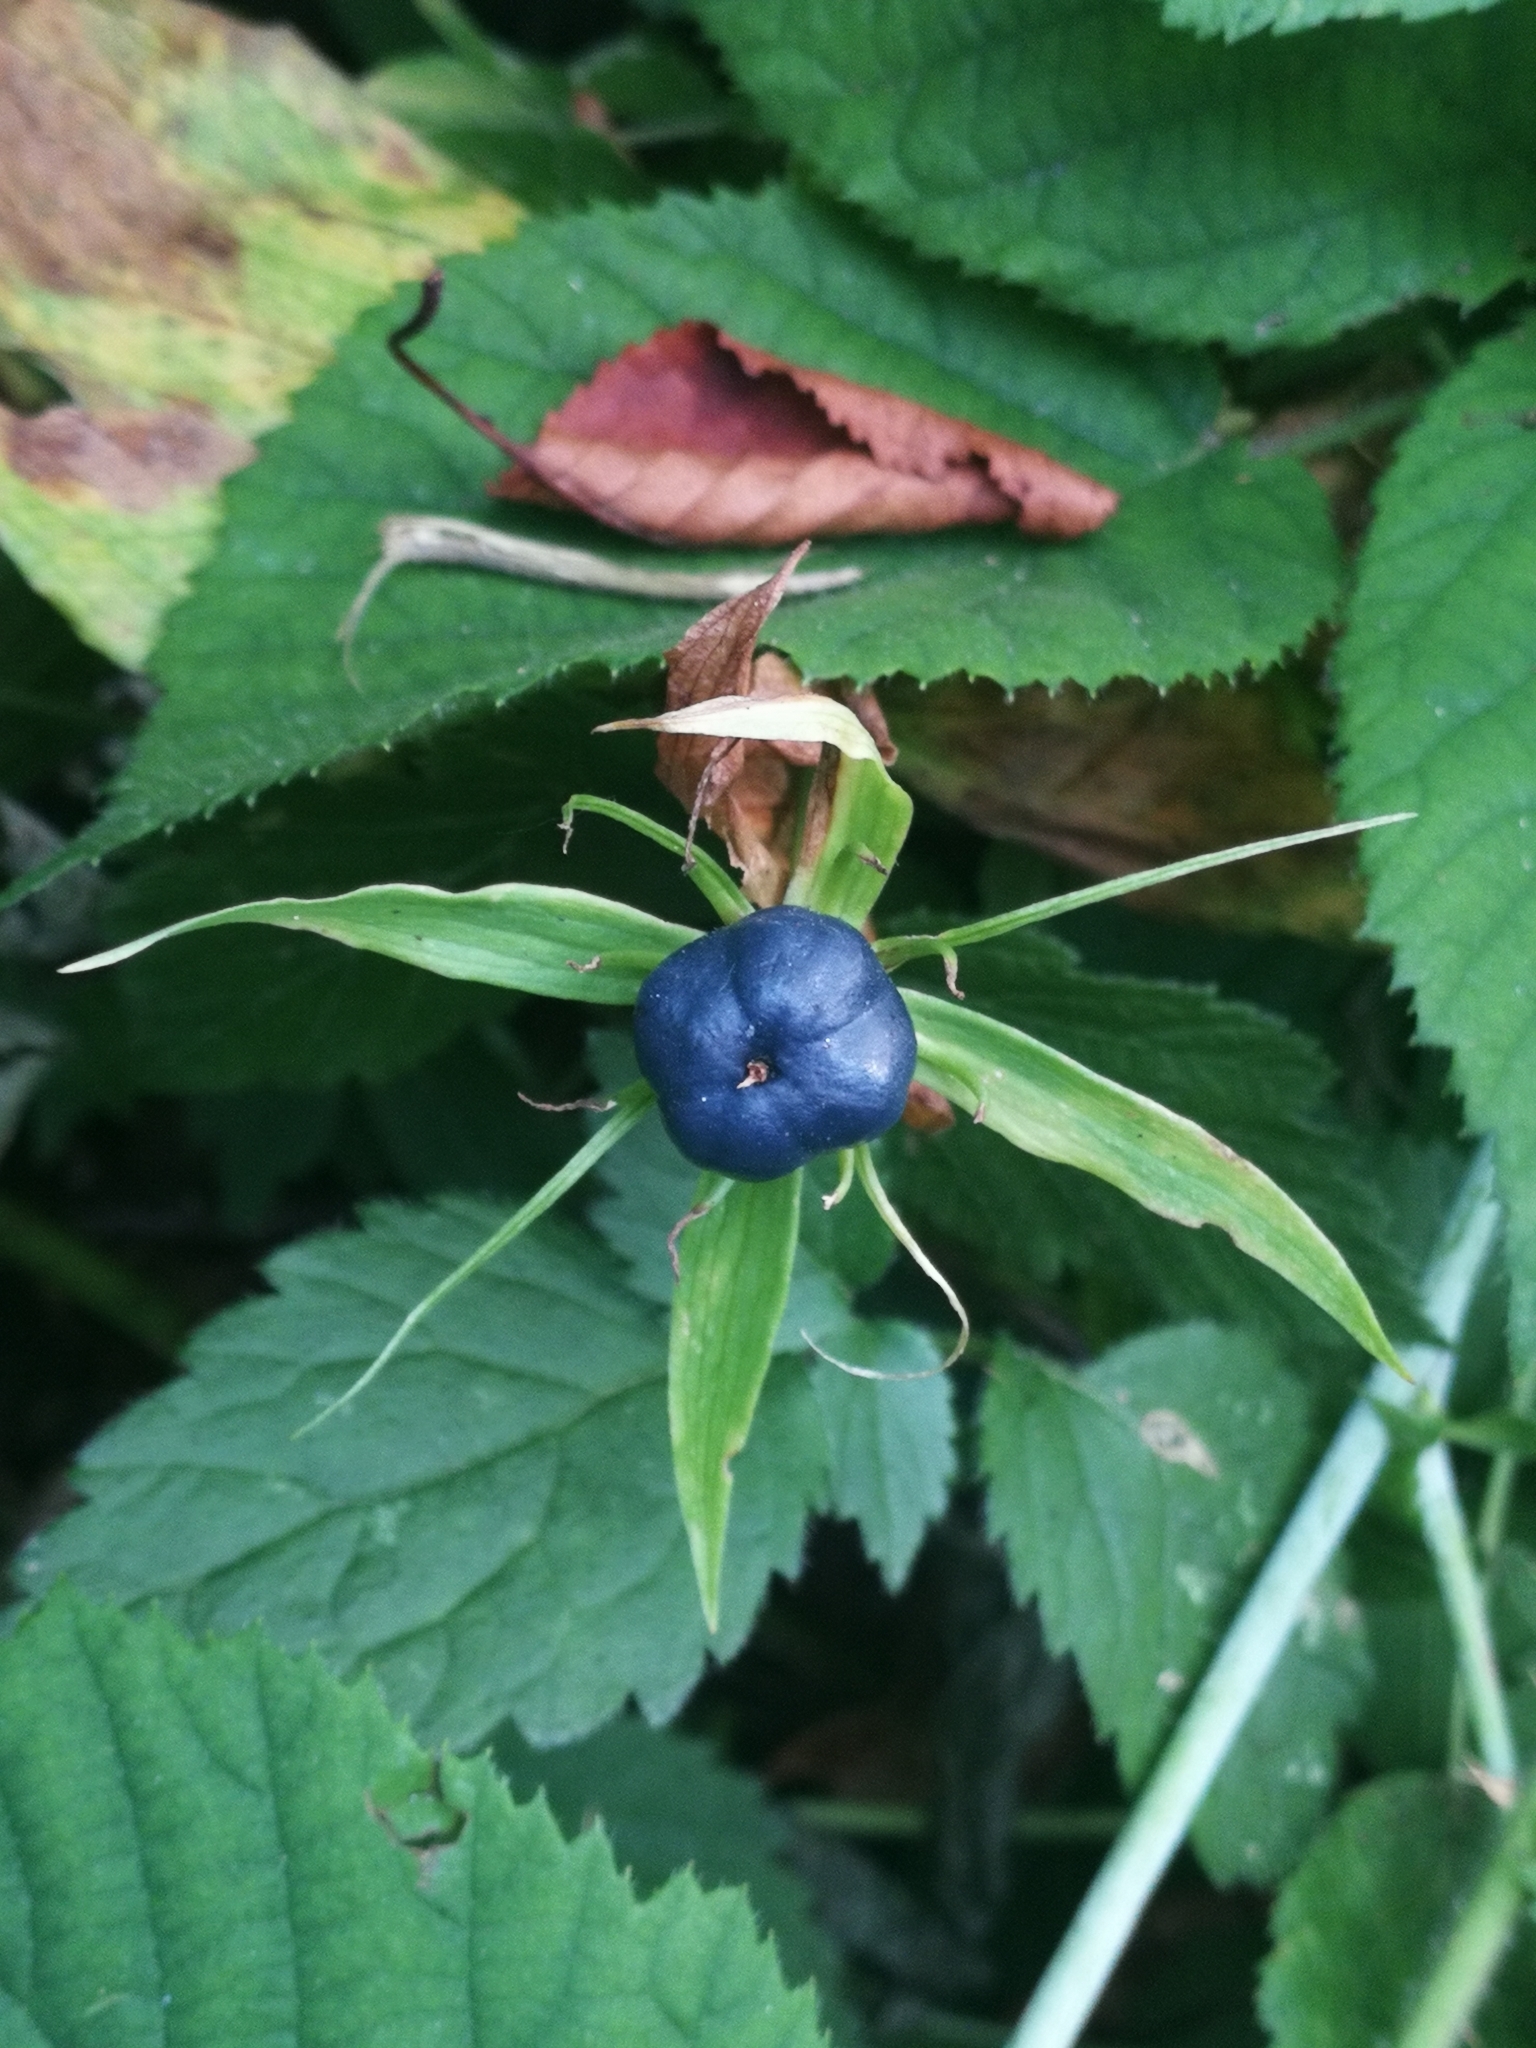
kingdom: Plantae
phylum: Tracheophyta
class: Liliopsida
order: Liliales
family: Melanthiaceae
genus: Paris
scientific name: Paris quadrifolia
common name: Herb-paris
